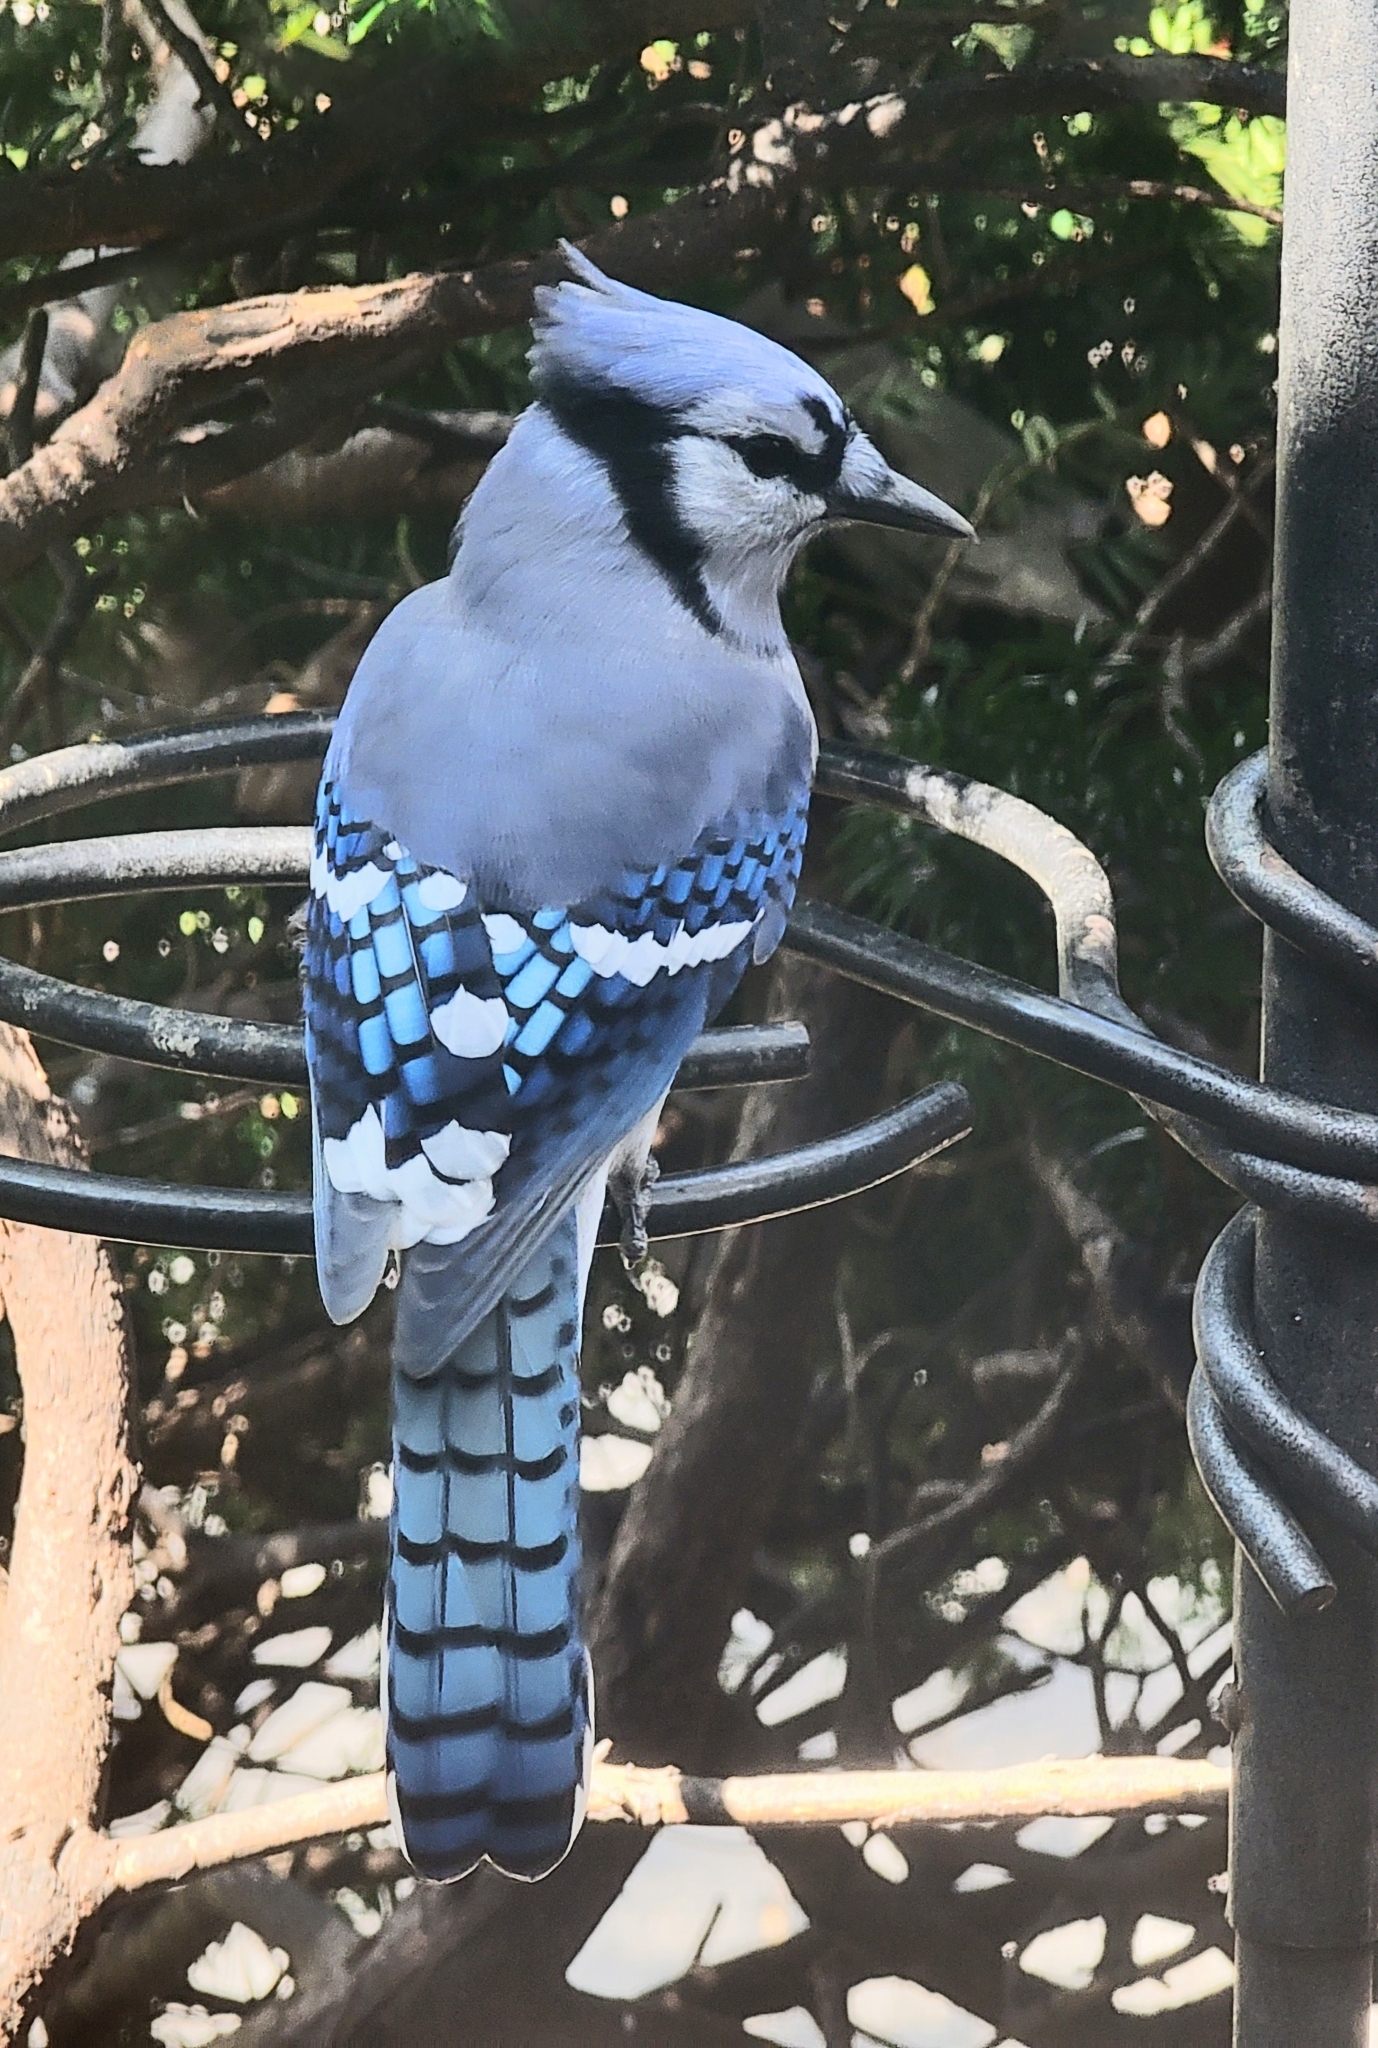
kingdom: Animalia
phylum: Chordata
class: Aves
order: Passeriformes
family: Corvidae
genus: Cyanocitta
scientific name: Cyanocitta cristata
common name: Blue jay
